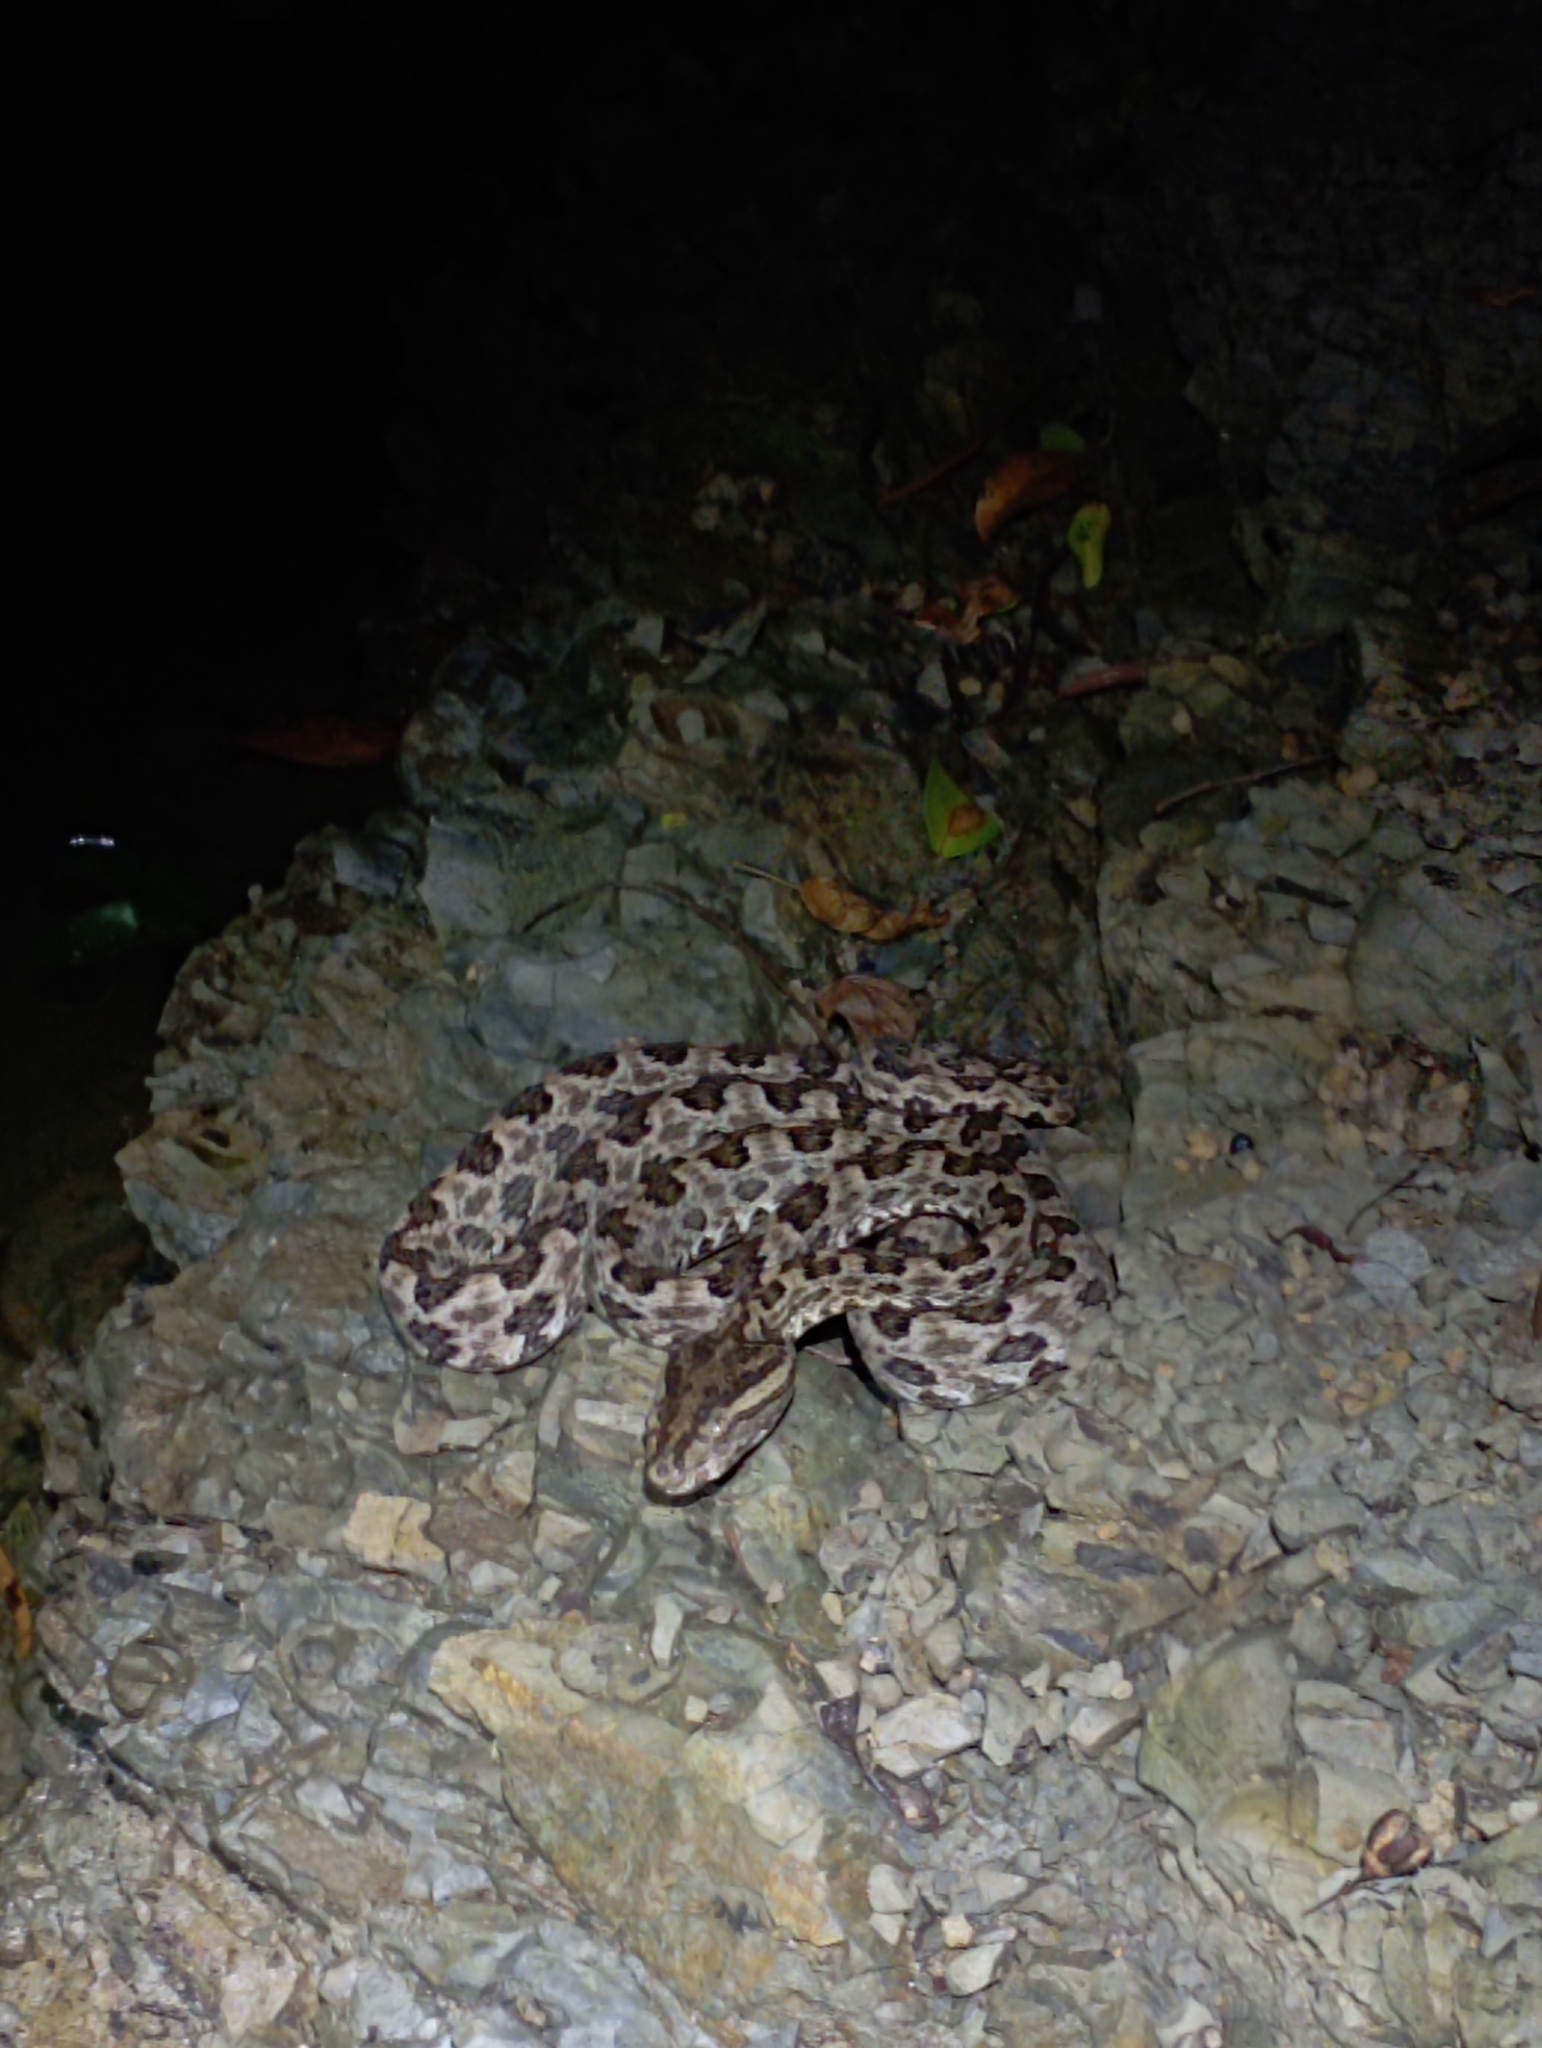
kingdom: Animalia
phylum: Chordata
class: Squamata
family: Viperidae
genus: Protobothrops
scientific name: Protobothrops mucrosquamatus
